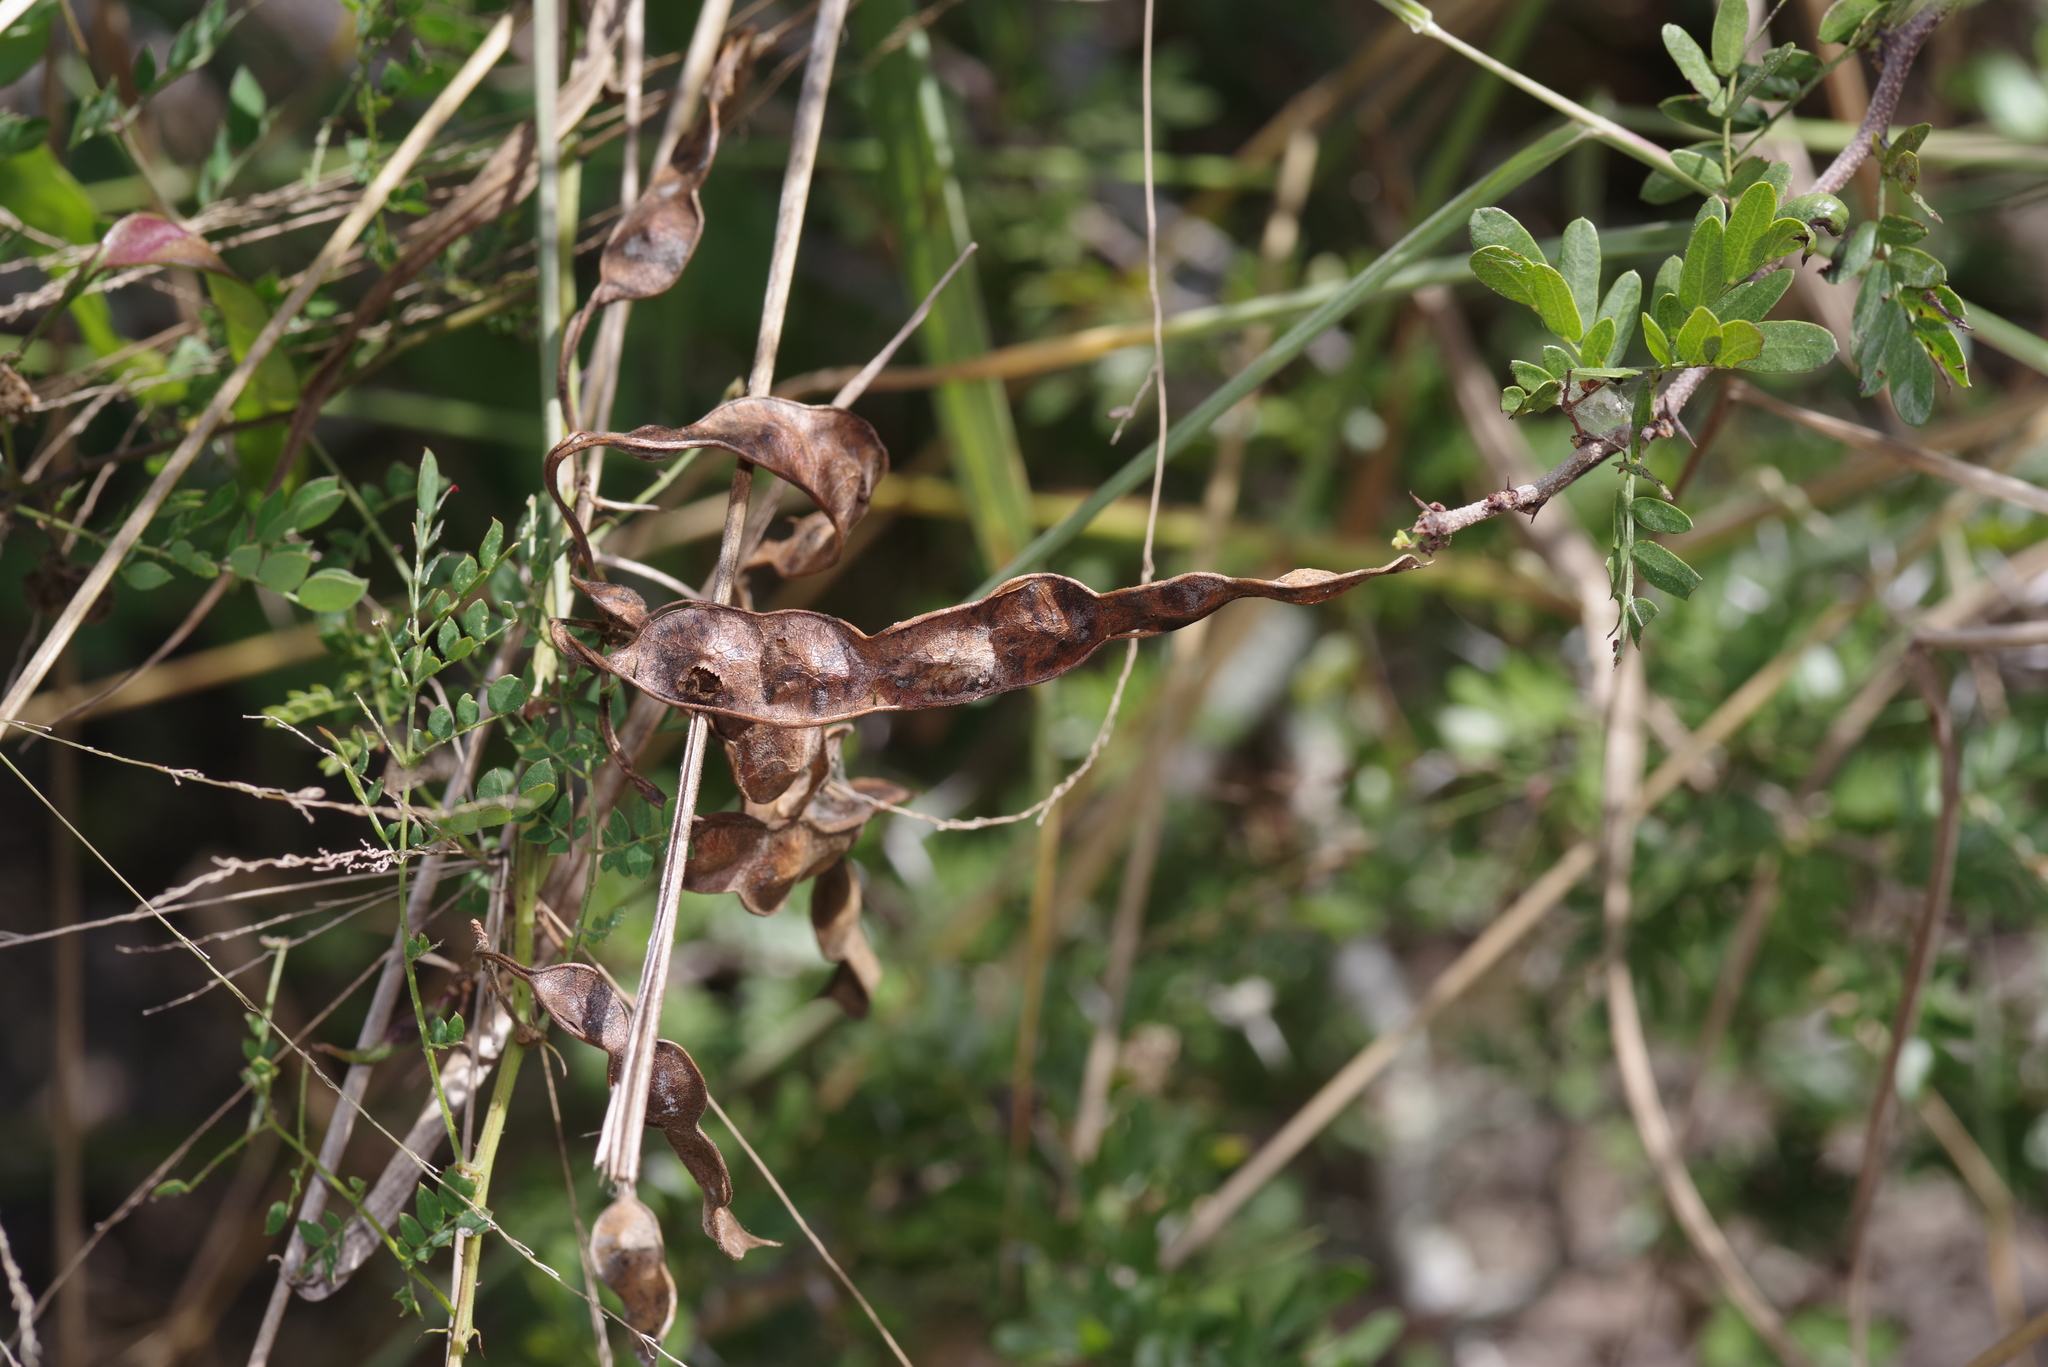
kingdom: Plantae
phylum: Tracheophyta
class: Magnoliopsida
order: Fabales
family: Fabaceae
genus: Mimosa
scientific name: Mimosa malacophylla
